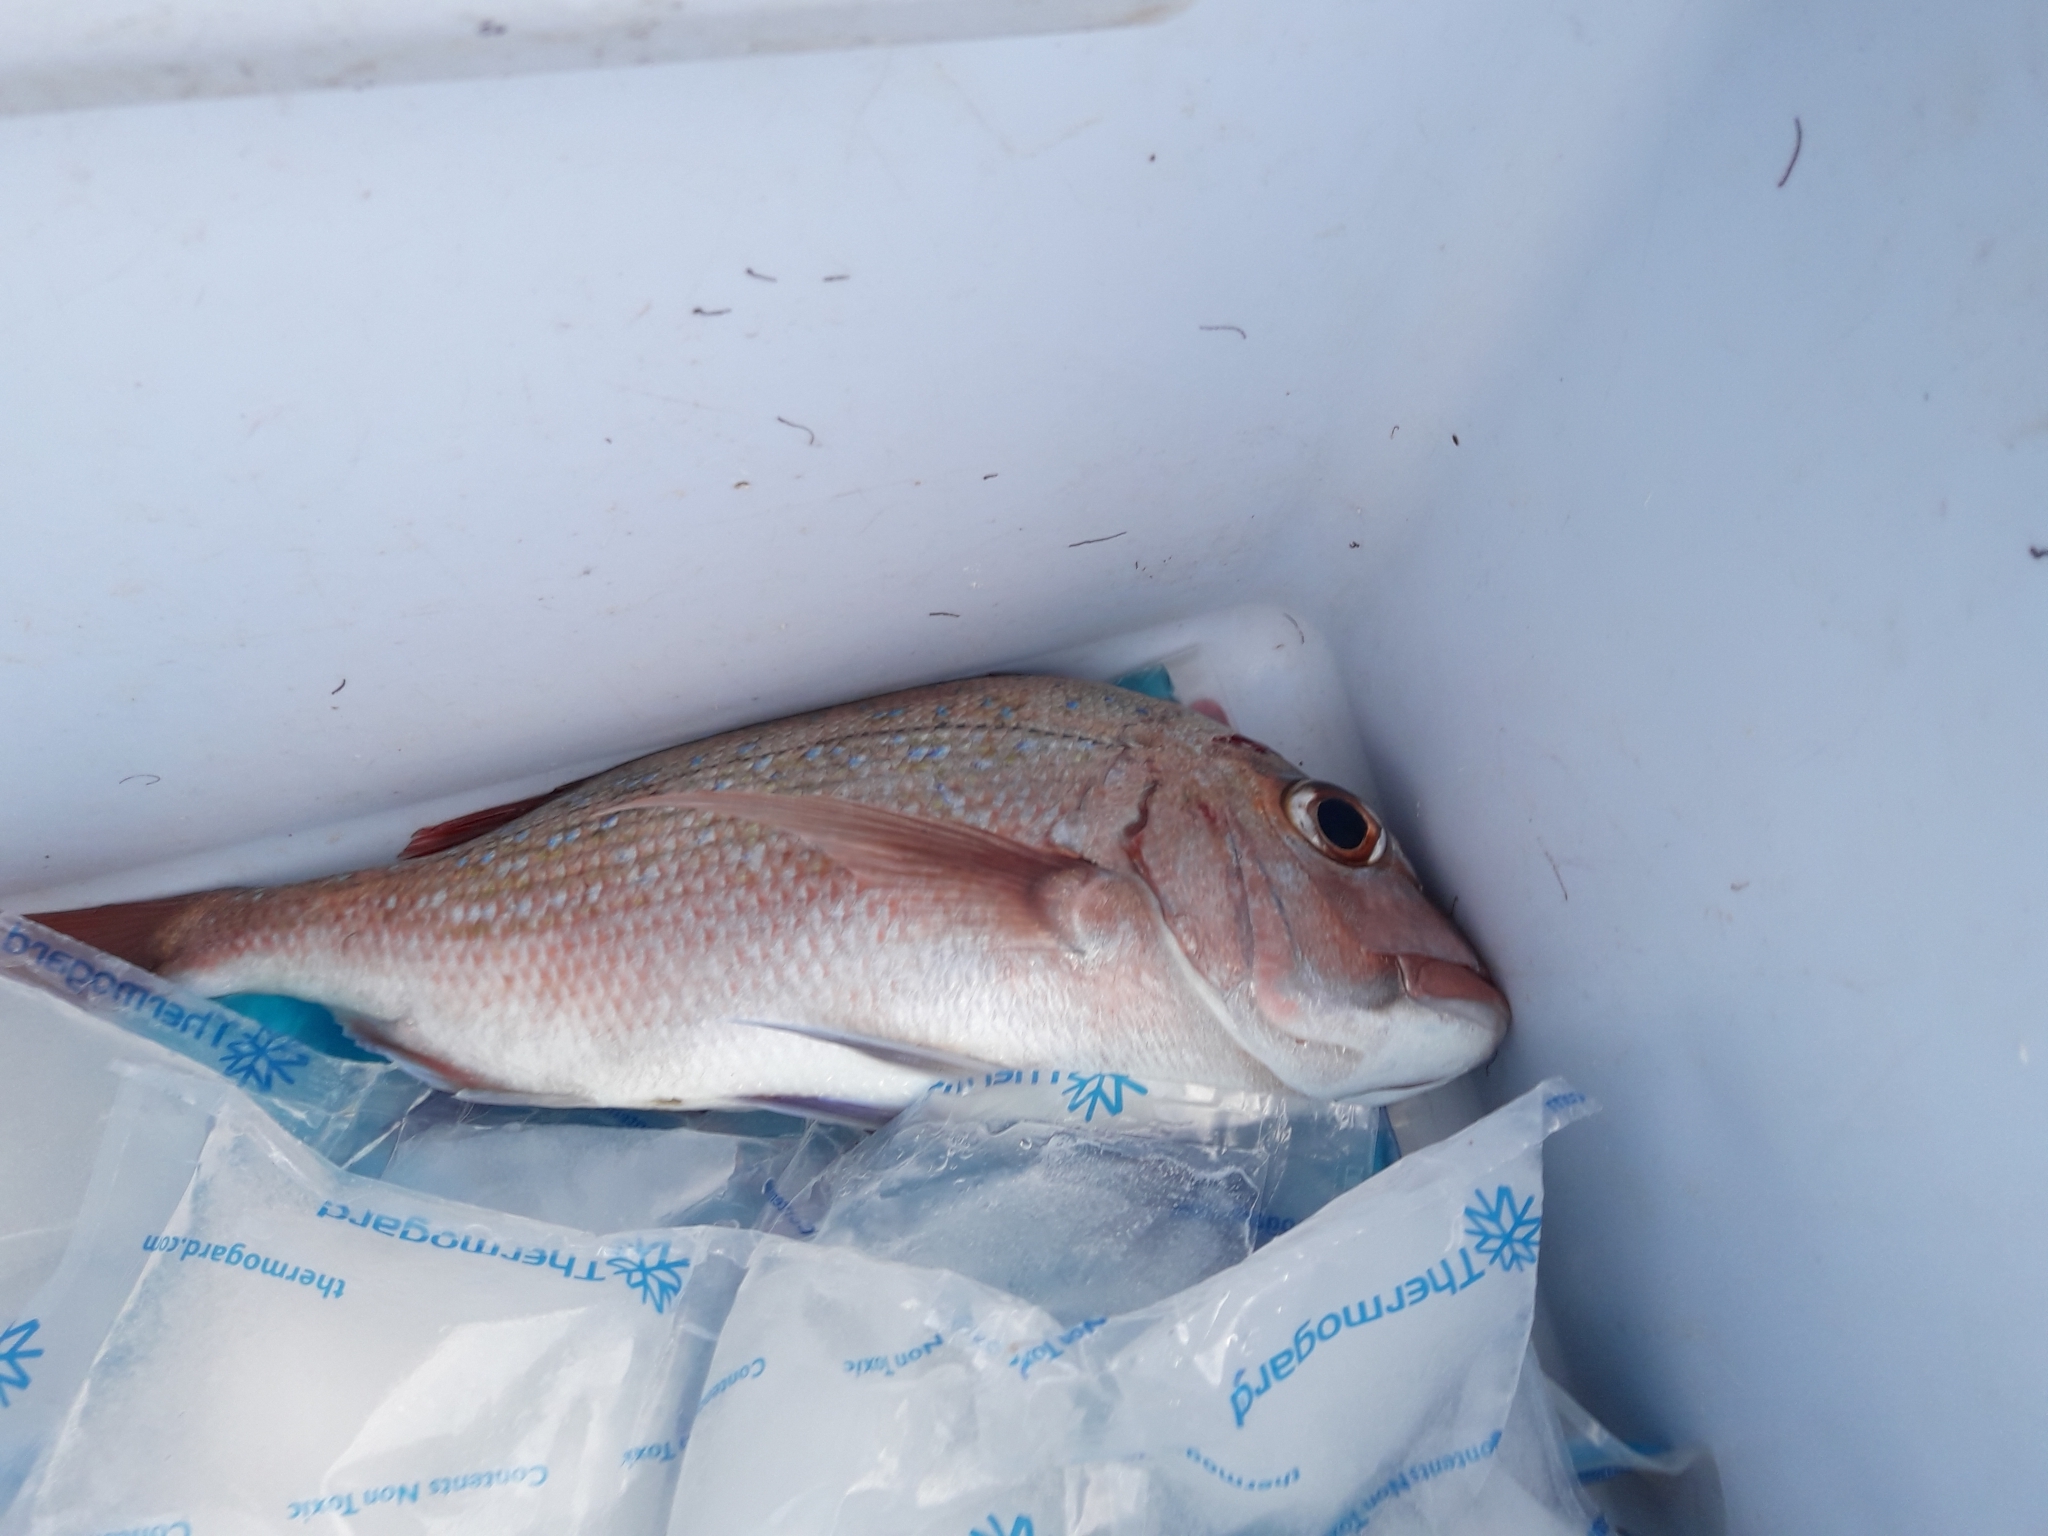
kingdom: Animalia
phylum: Chordata
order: Perciformes
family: Sparidae
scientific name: Sparidae
